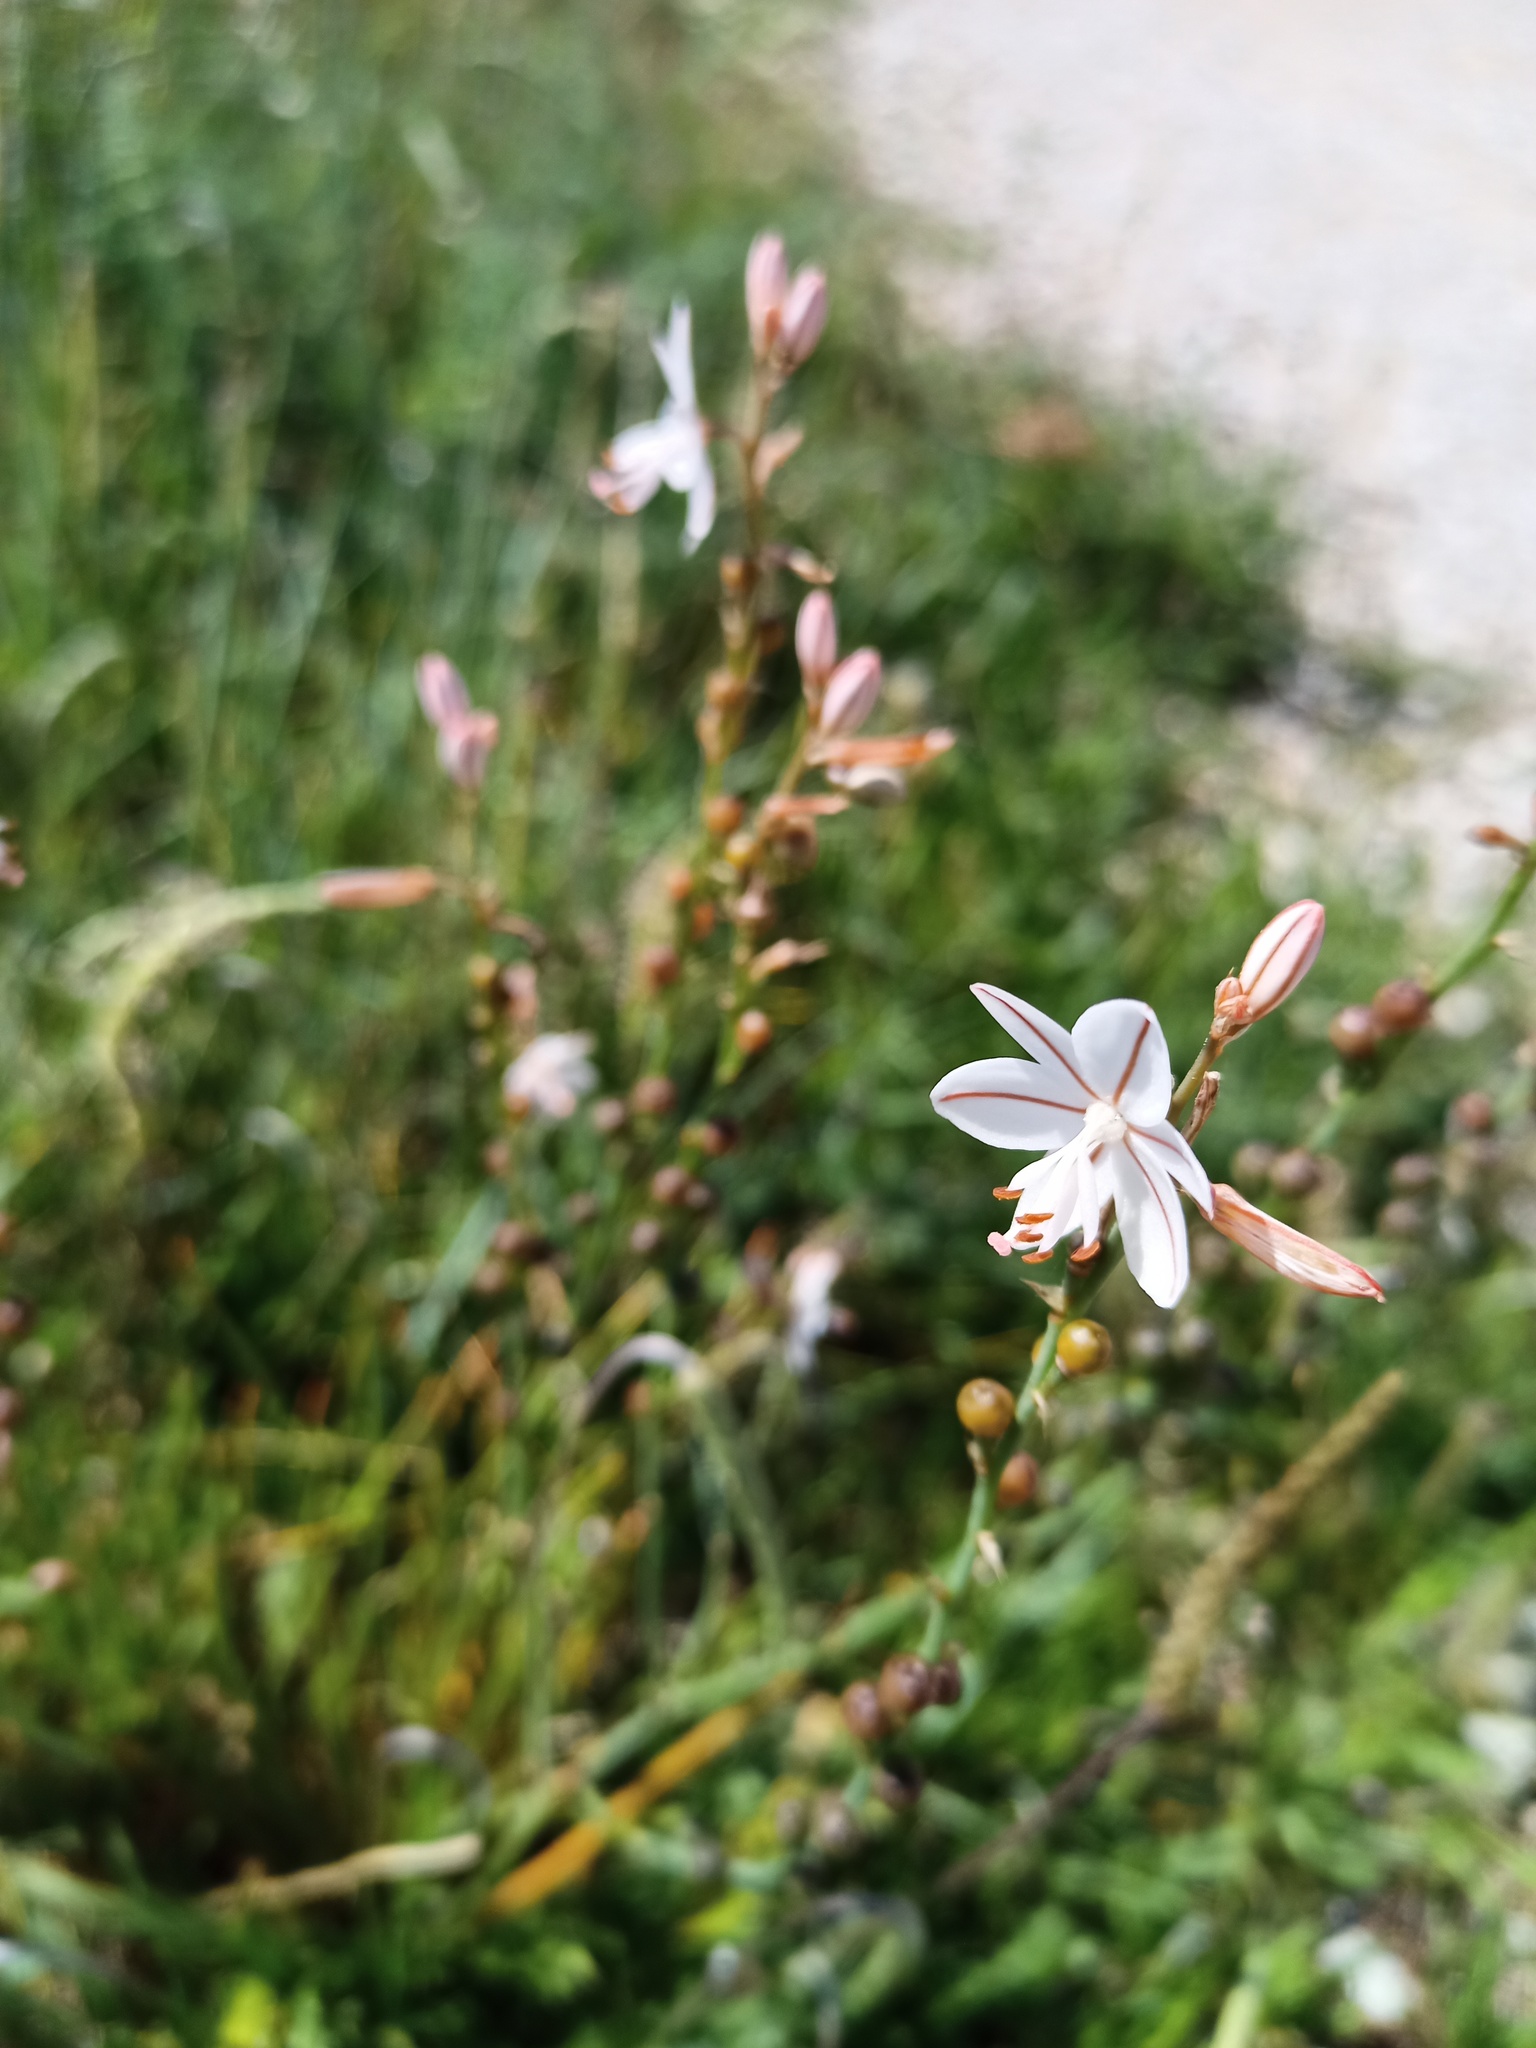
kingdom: Plantae
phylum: Tracheophyta
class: Liliopsida
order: Asparagales
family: Asphodelaceae
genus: Asphodelus
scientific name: Asphodelus fistulosus
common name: Onionweed
